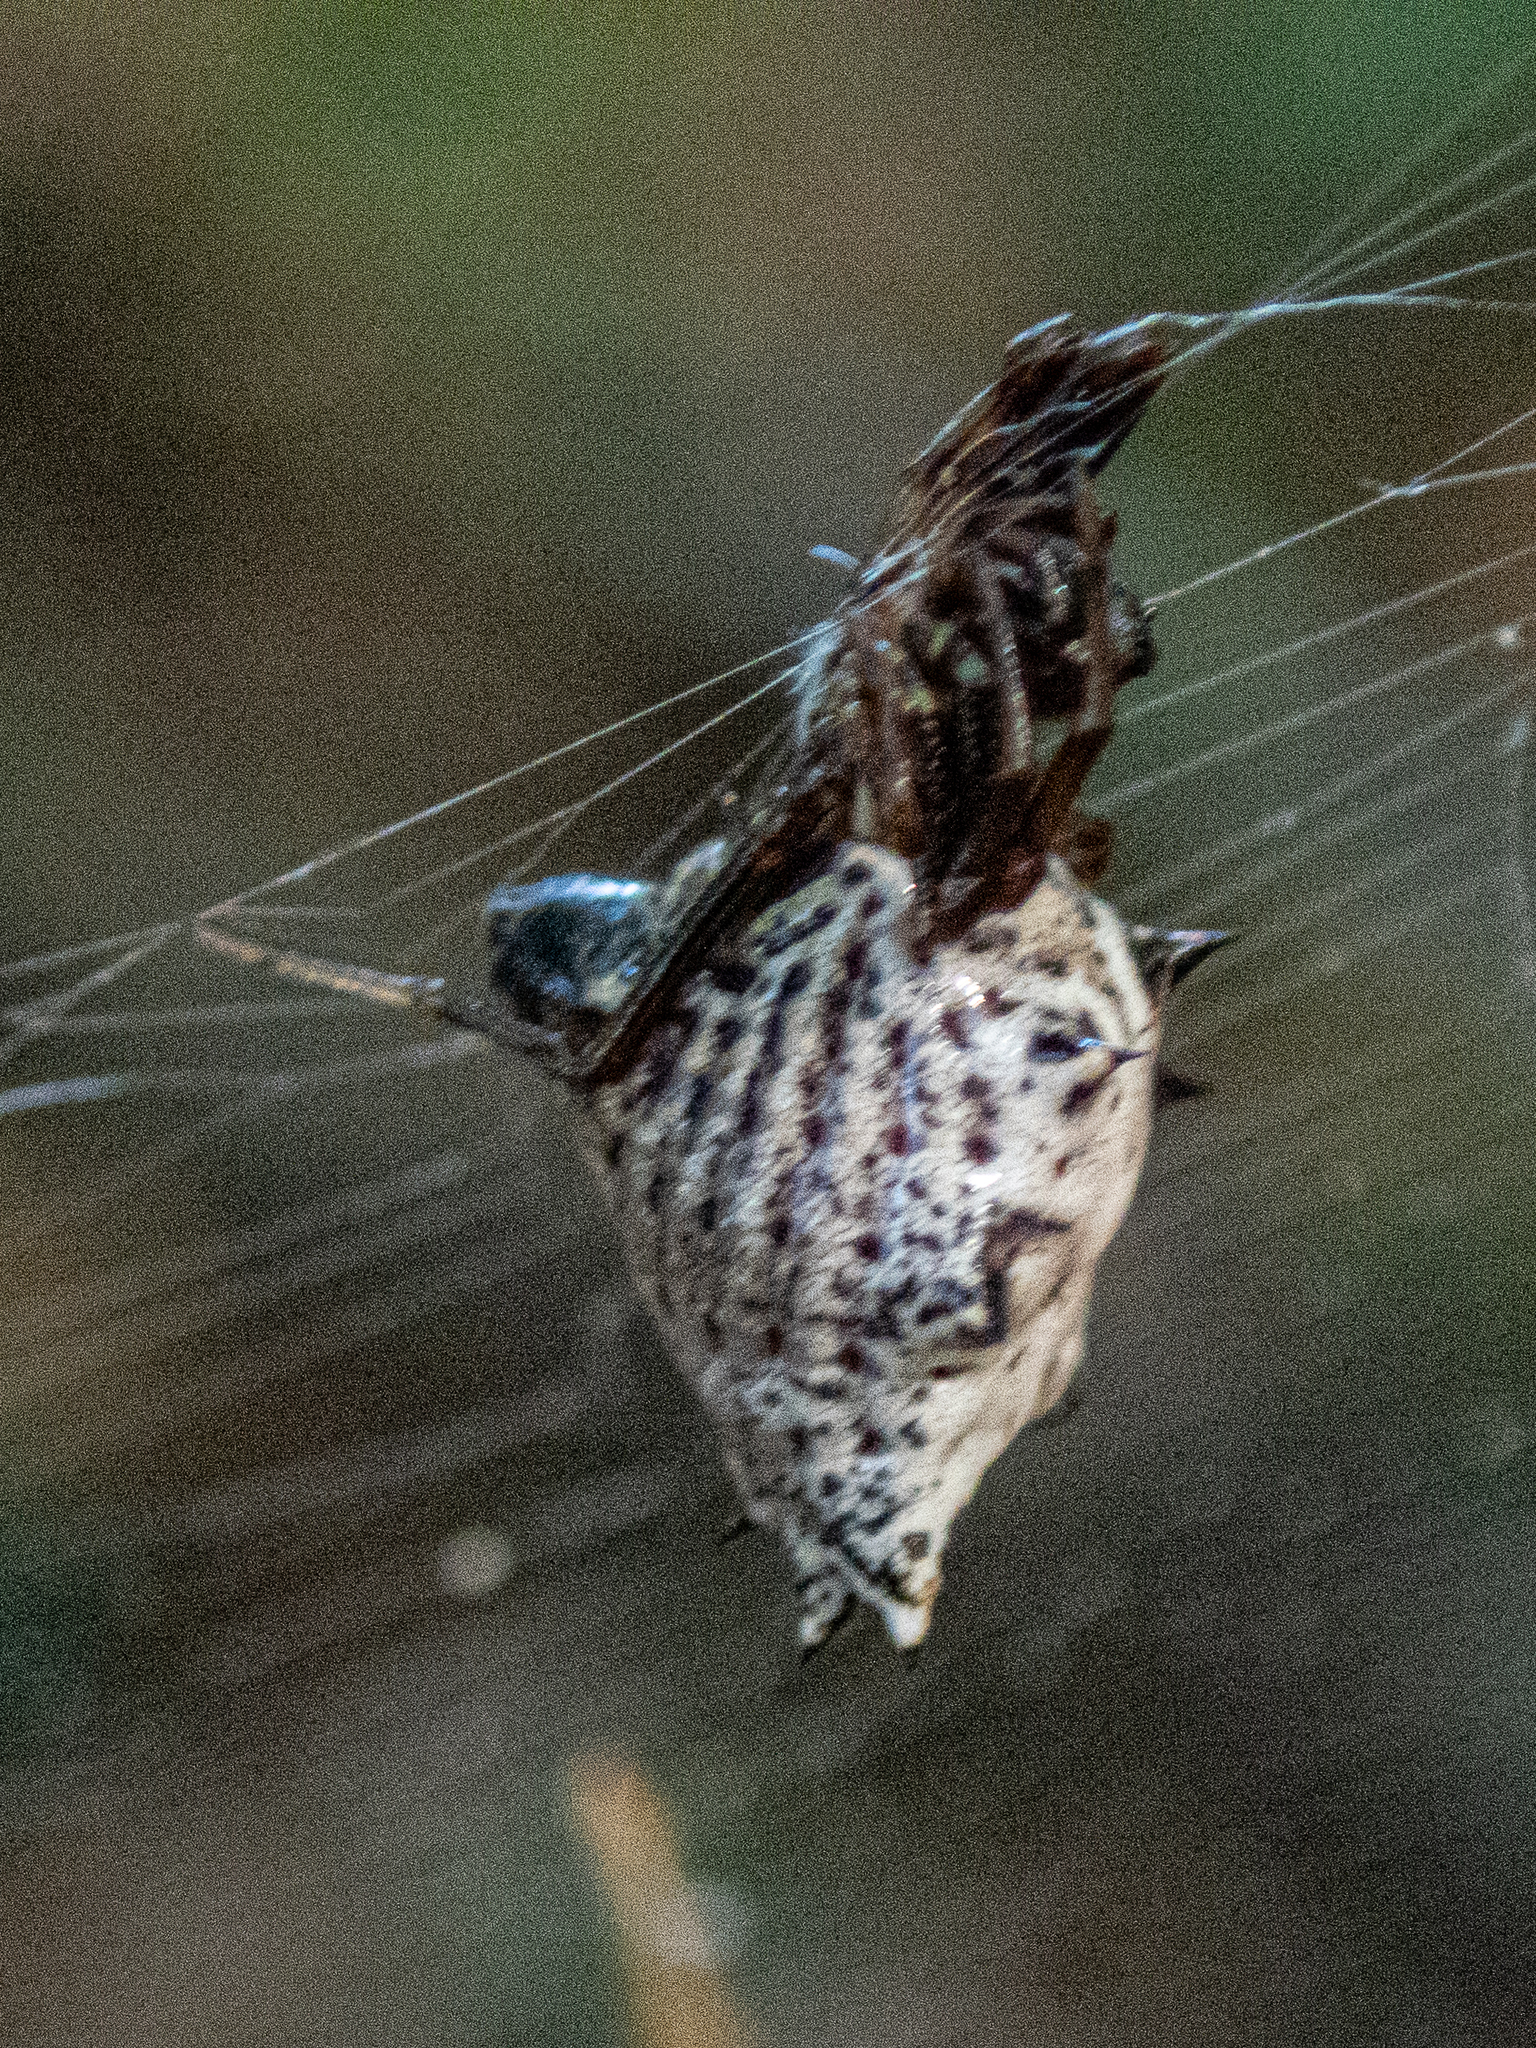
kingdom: Animalia
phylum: Arthropoda
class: Arachnida
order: Araneae
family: Araneidae
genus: Micrathena
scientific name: Micrathena gracilis
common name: Orb weavers
